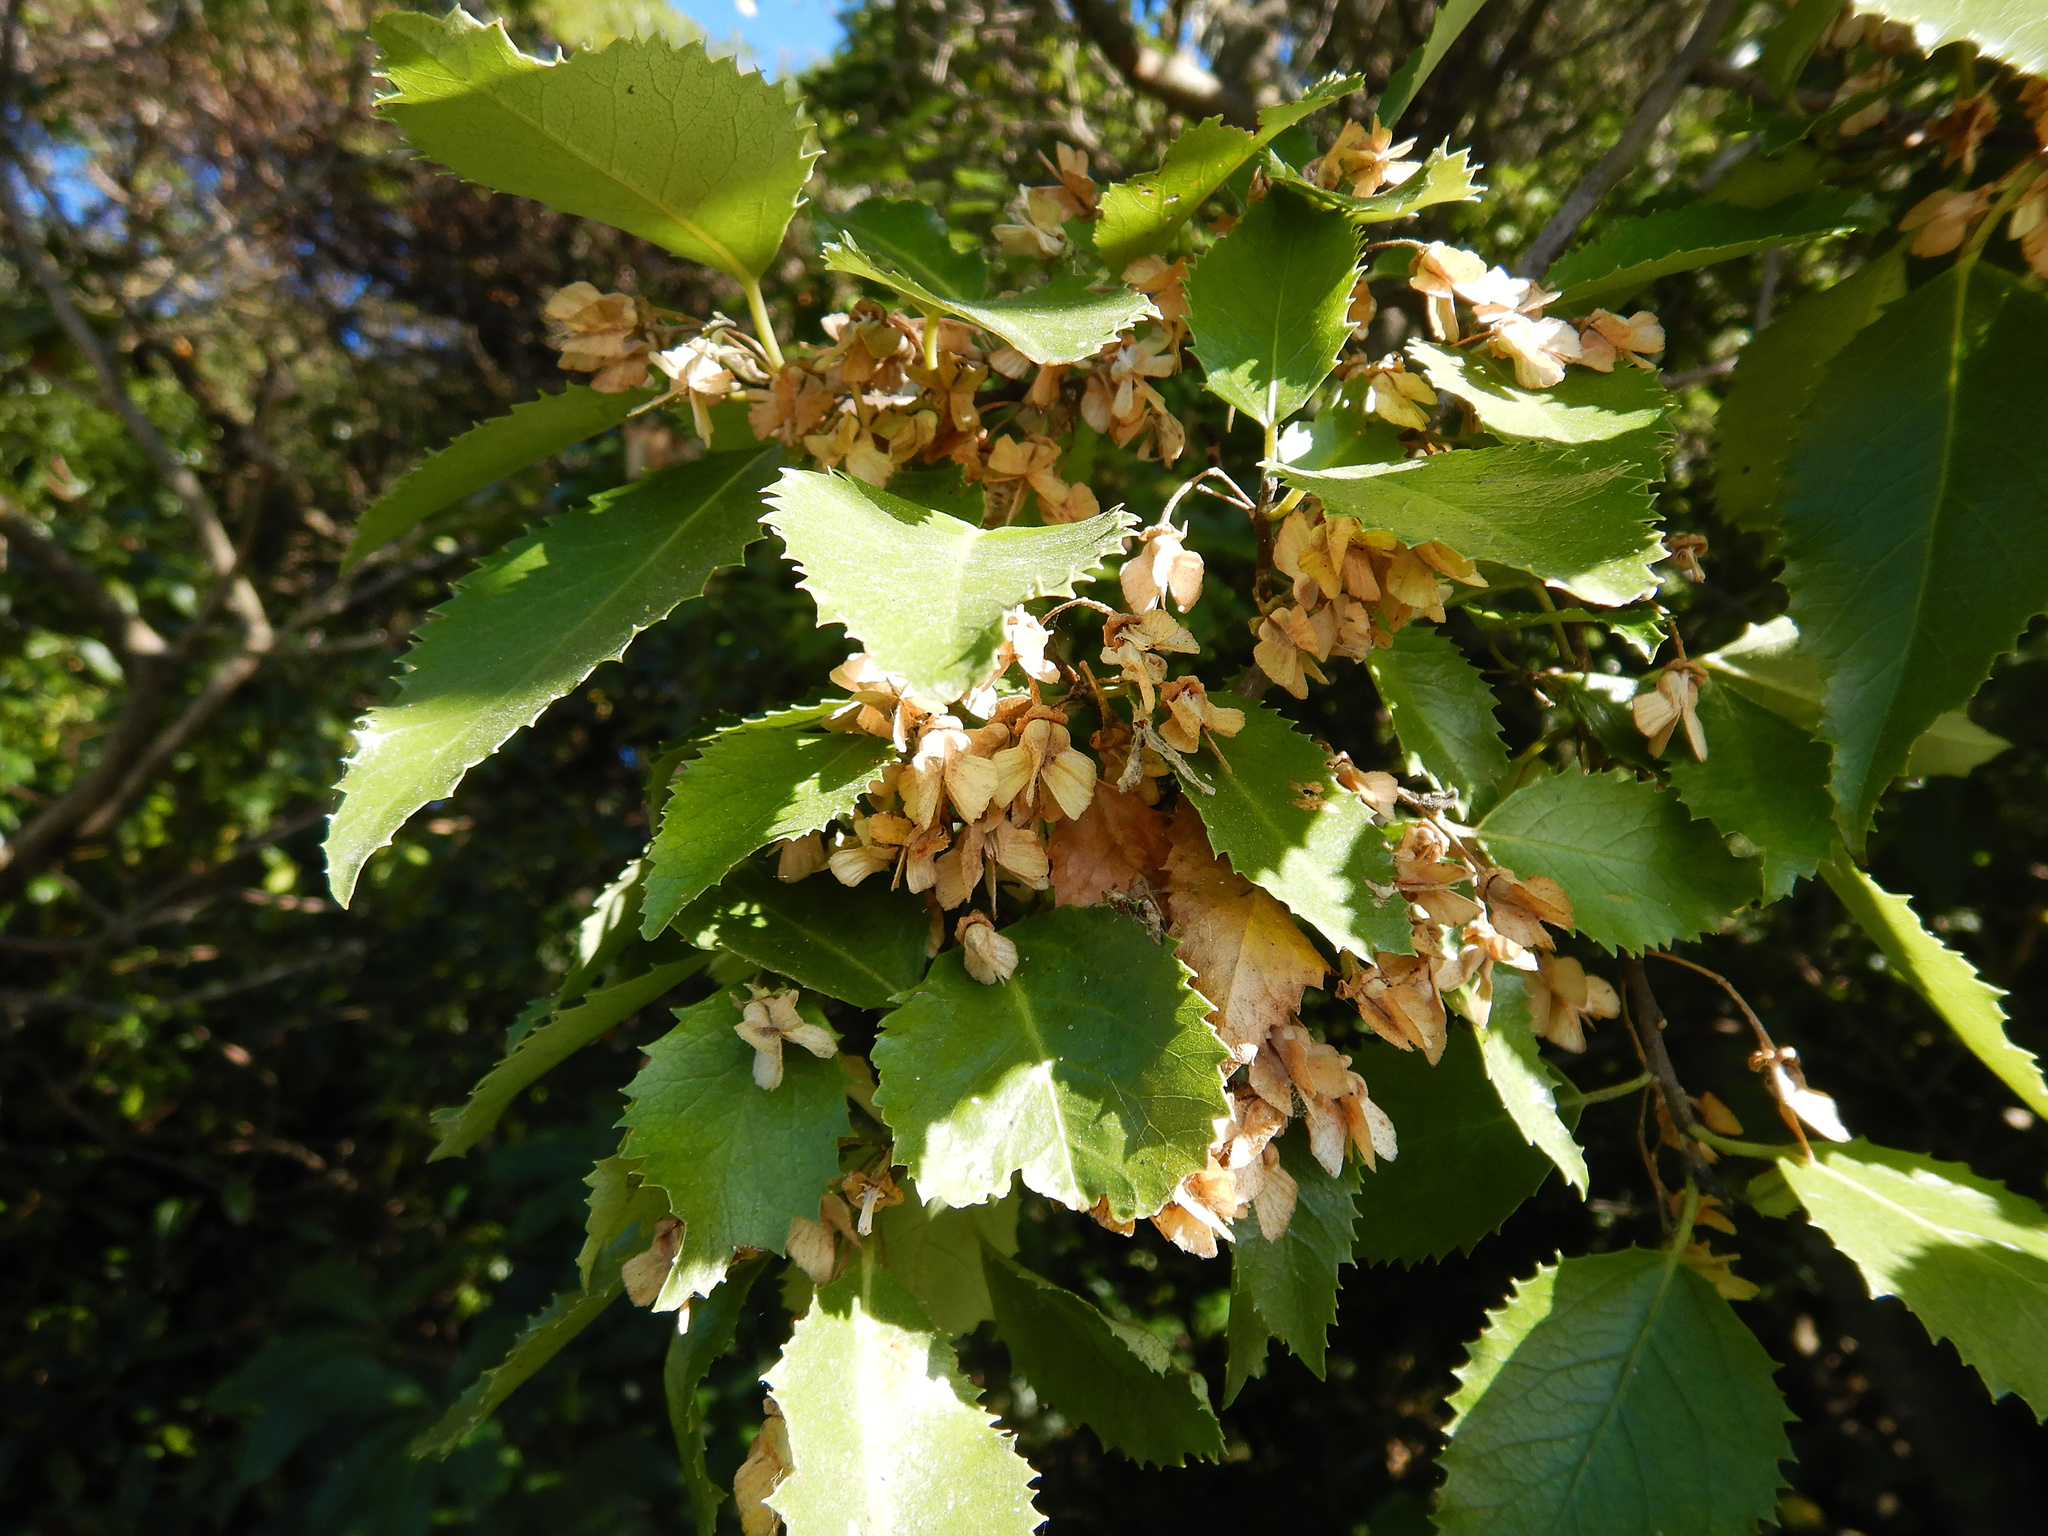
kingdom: Plantae
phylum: Tracheophyta
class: Magnoliopsida
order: Malvales
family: Malvaceae
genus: Hoheria
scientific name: Hoheria populnea
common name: Lacebark
